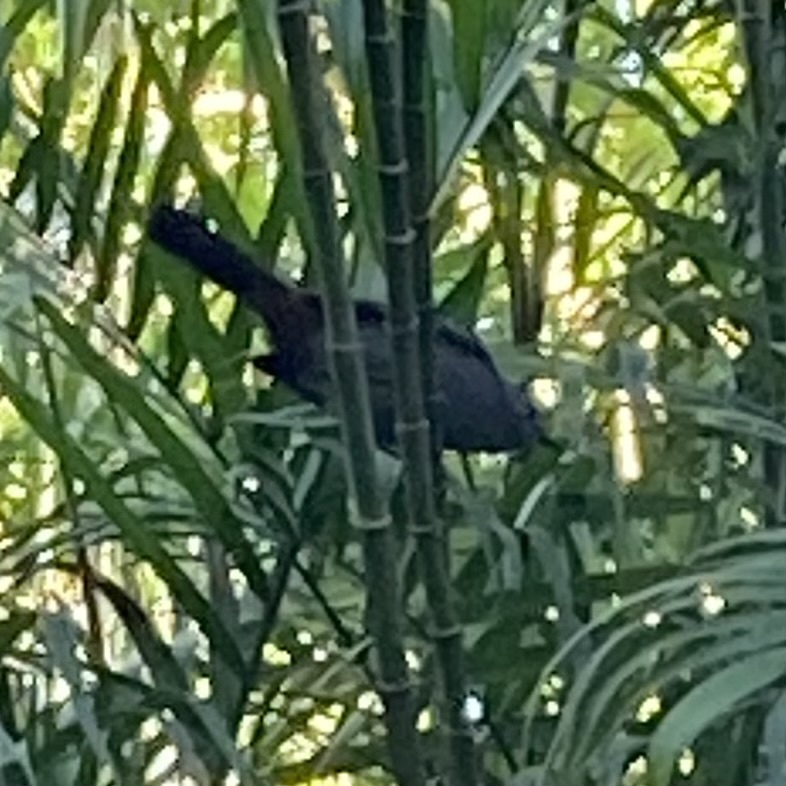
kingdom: Animalia
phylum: Chordata
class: Aves
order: Passeriformes
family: Mimidae
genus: Dumetella
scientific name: Dumetella carolinensis
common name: Gray catbird
